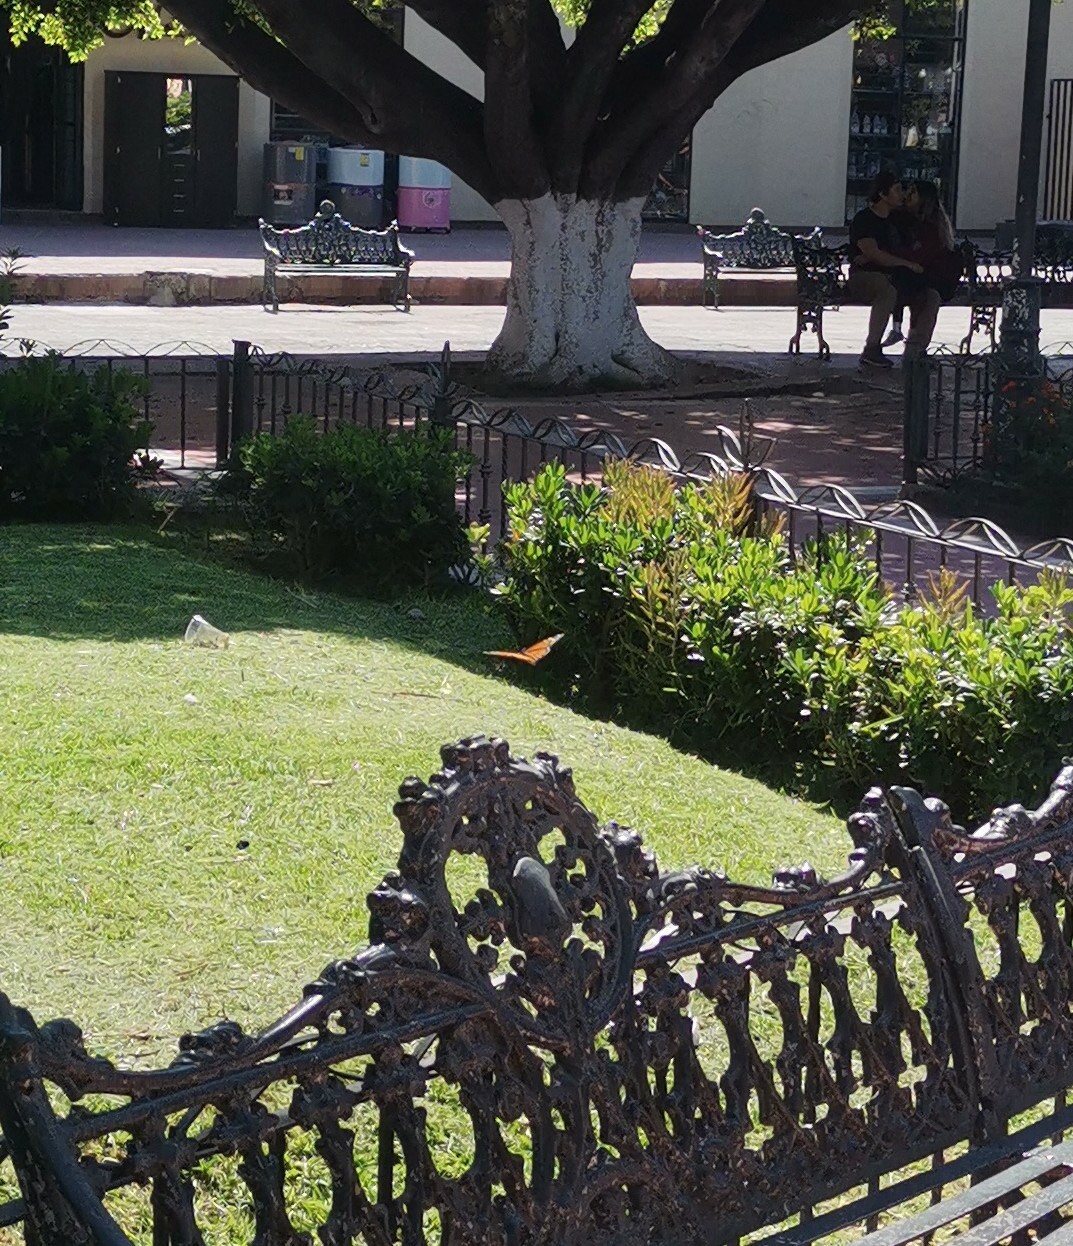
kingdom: Animalia
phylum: Arthropoda
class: Insecta
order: Lepidoptera
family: Nymphalidae
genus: Danaus
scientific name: Danaus plexippus
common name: Monarch
